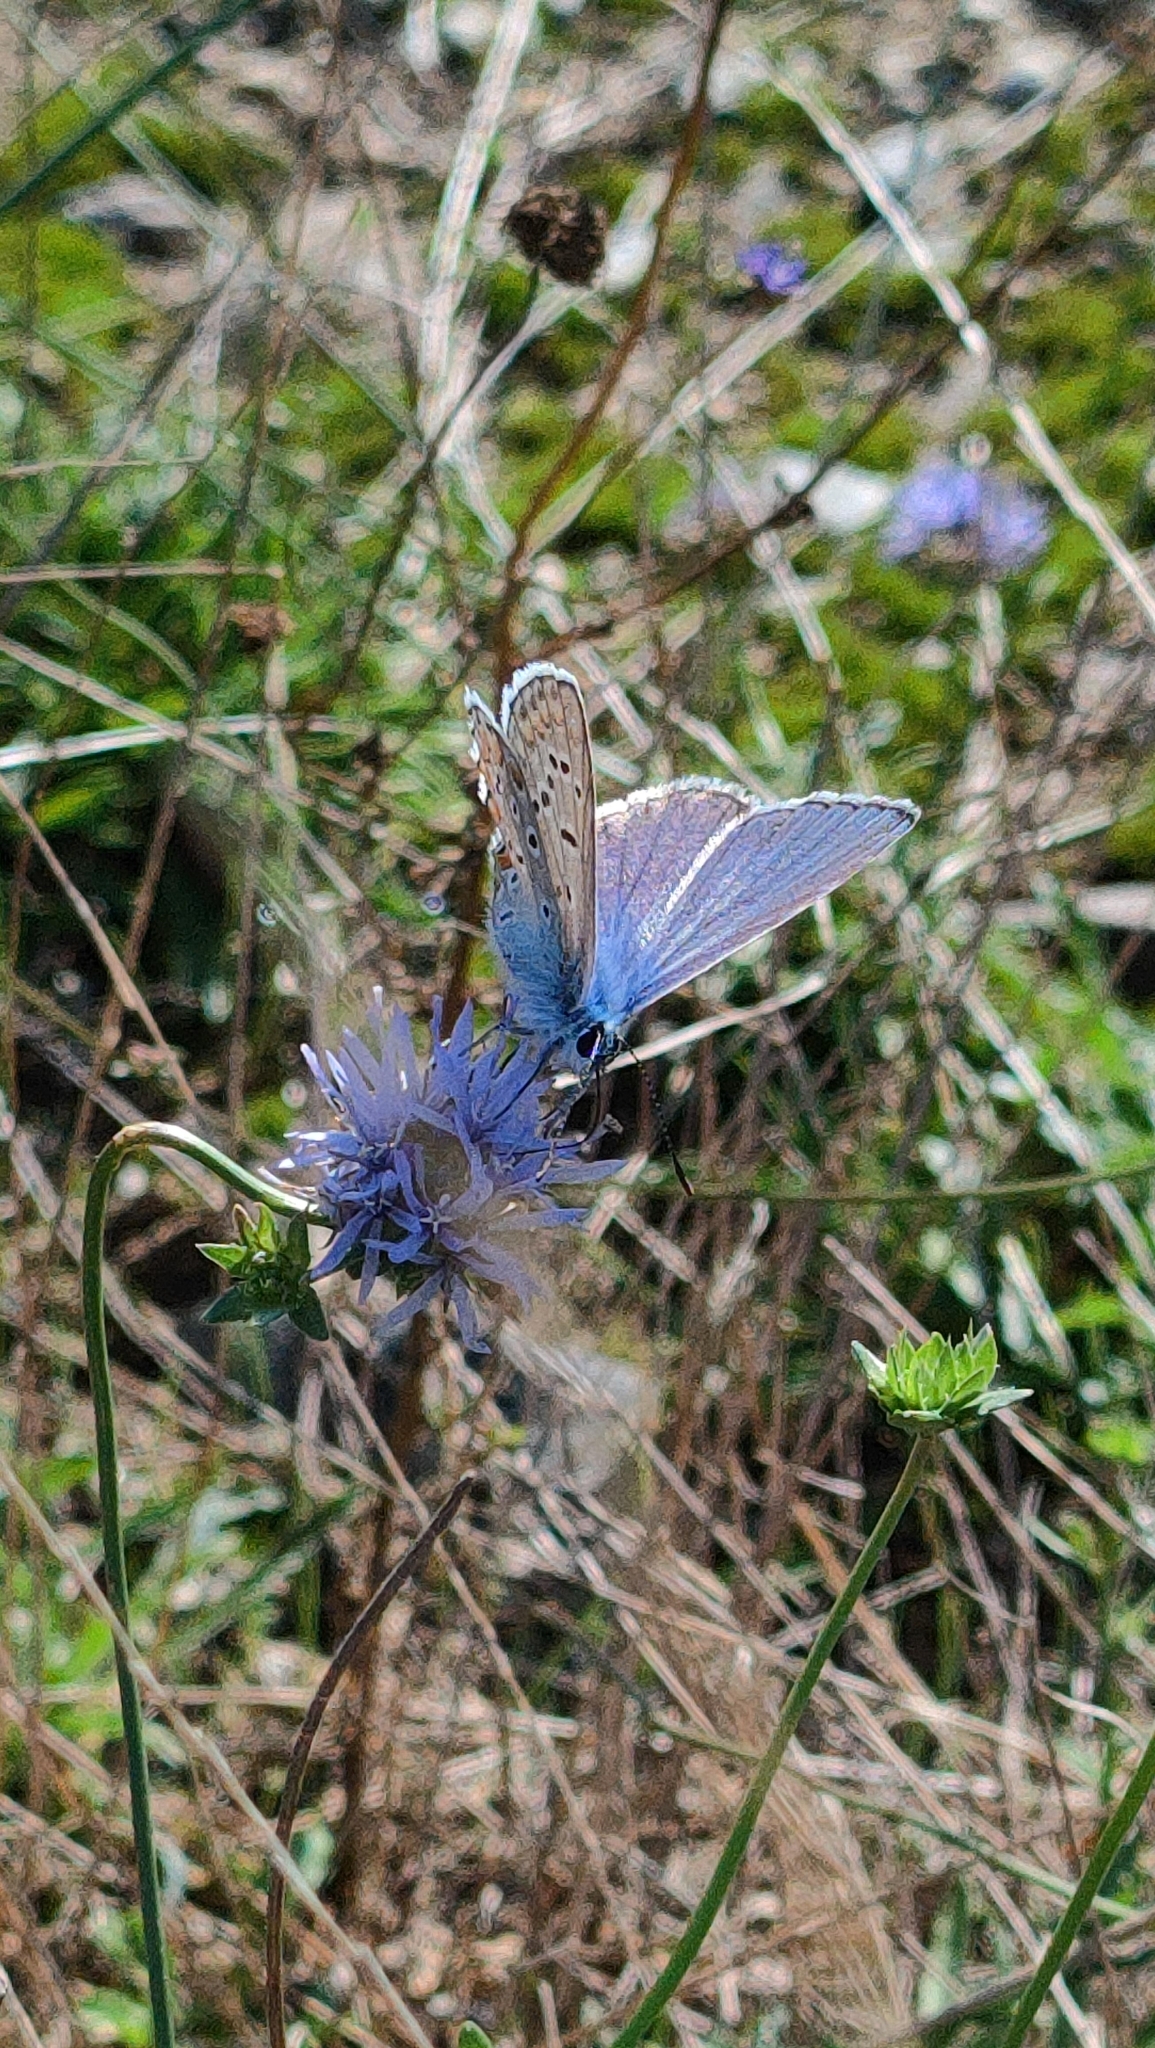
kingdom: Animalia
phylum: Arthropoda
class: Insecta
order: Lepidoptera
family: Lycaenidae
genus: Polyommatus
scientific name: Polyommatus icarus
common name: Common blue
